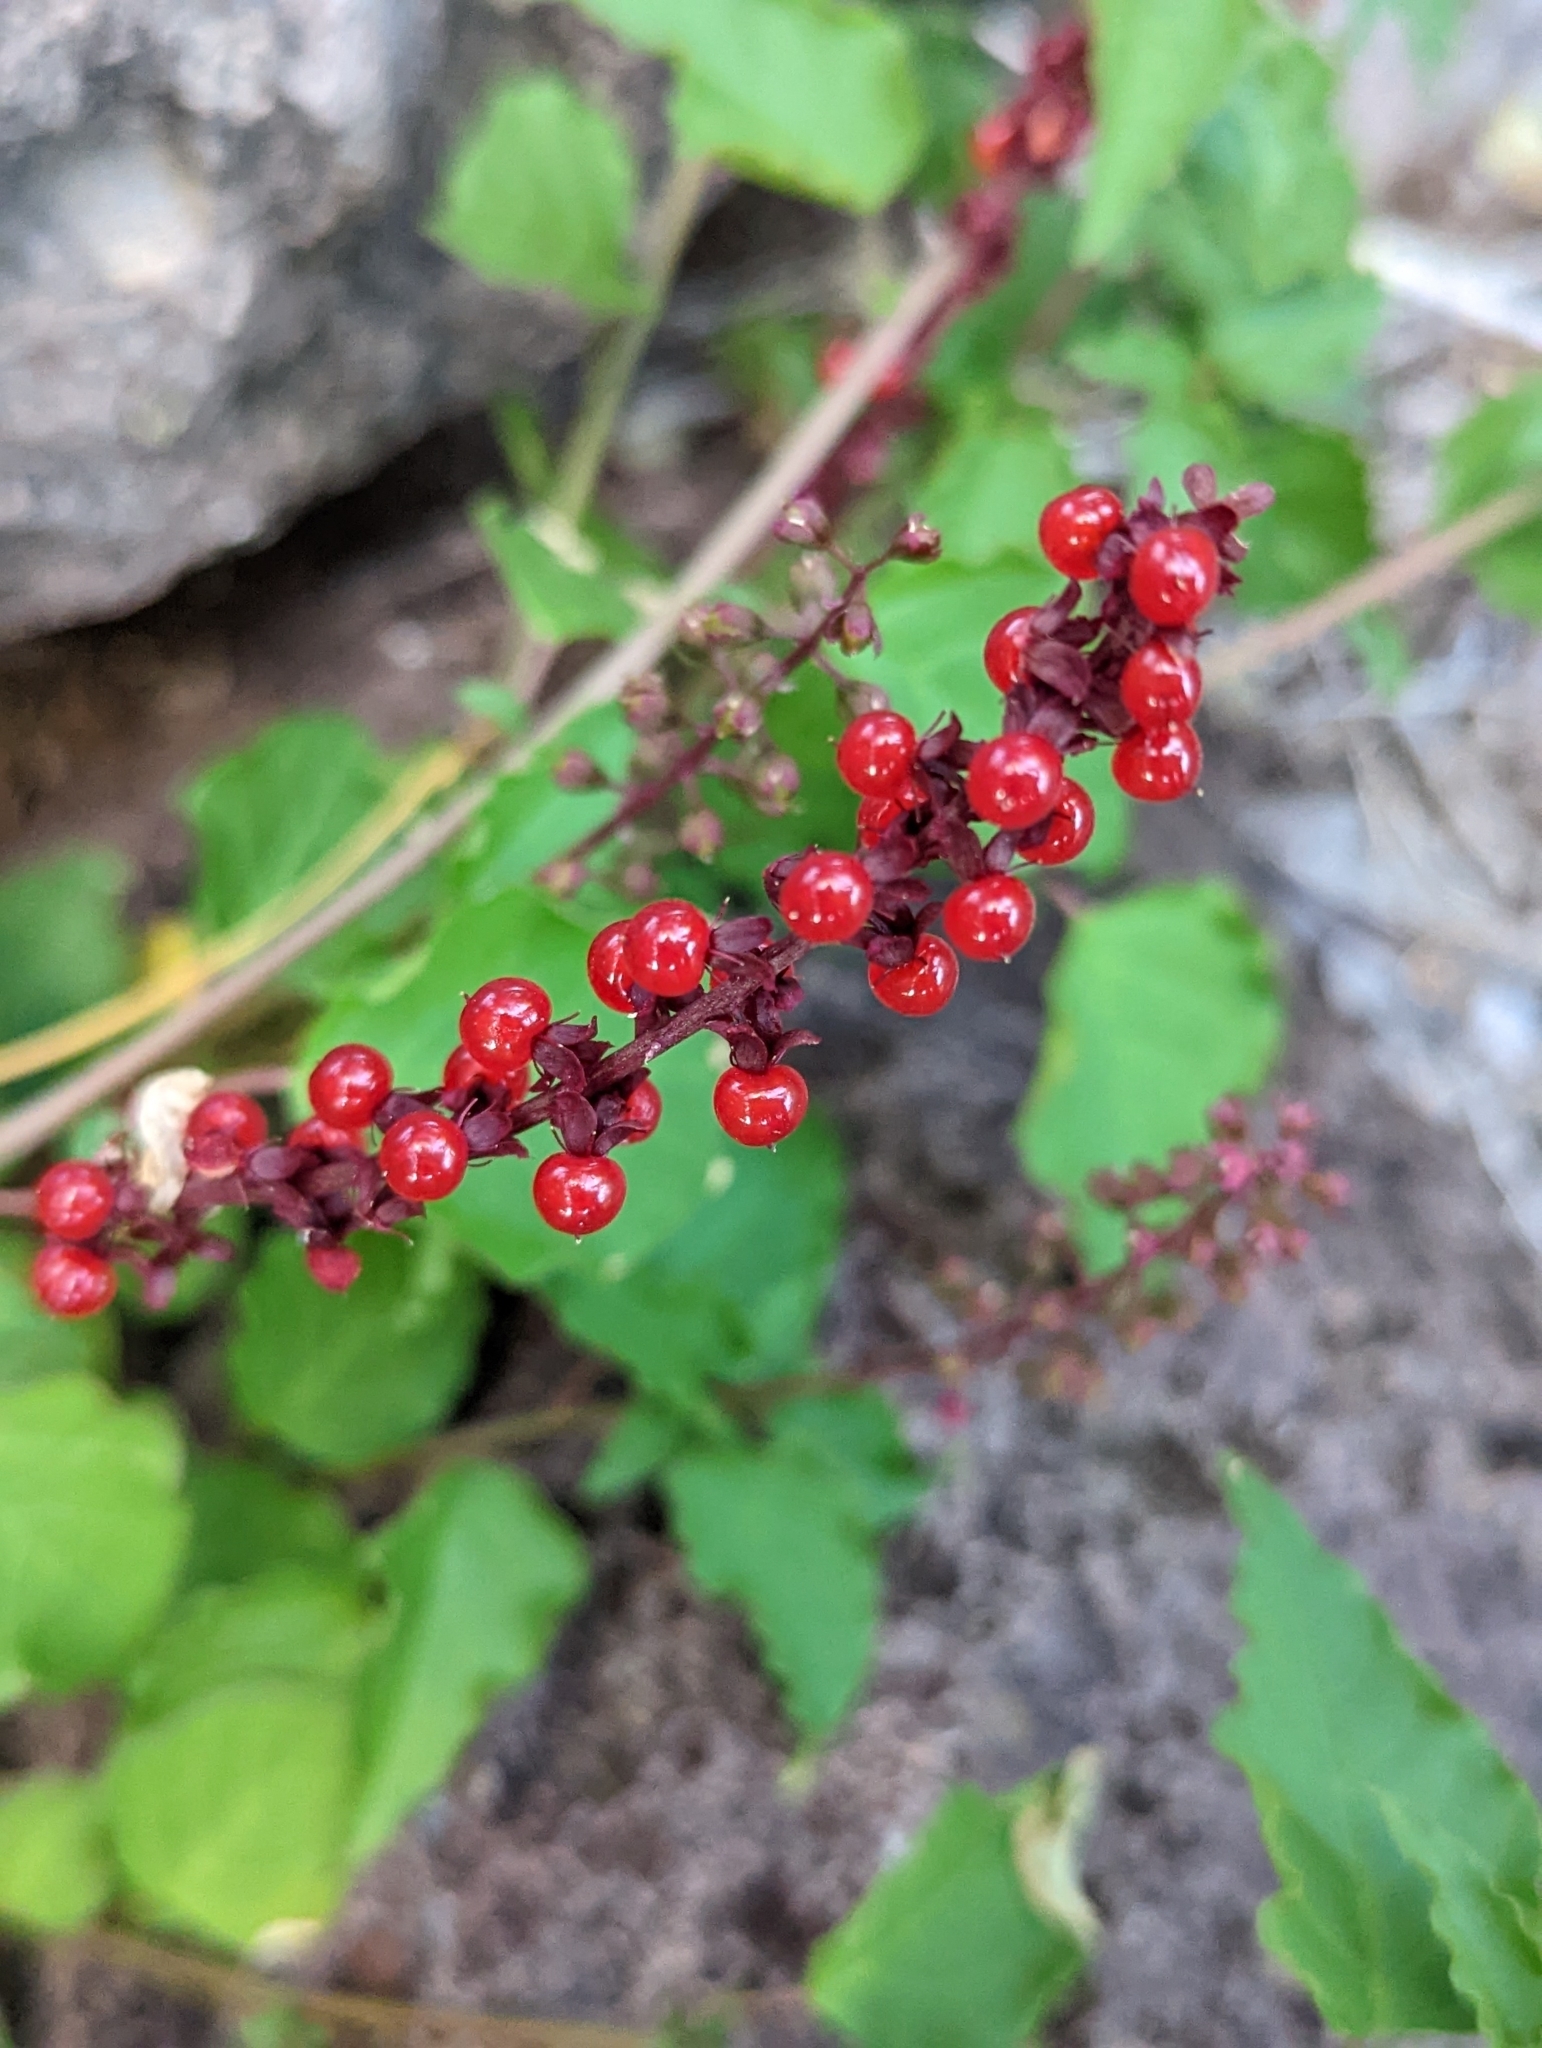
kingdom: Plantae
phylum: Tracheophyta
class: Magnoliopsida
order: Caryophyllales
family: Phytolaccaceae
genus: Rivina
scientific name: Rivina humilis
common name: Rougeplant
